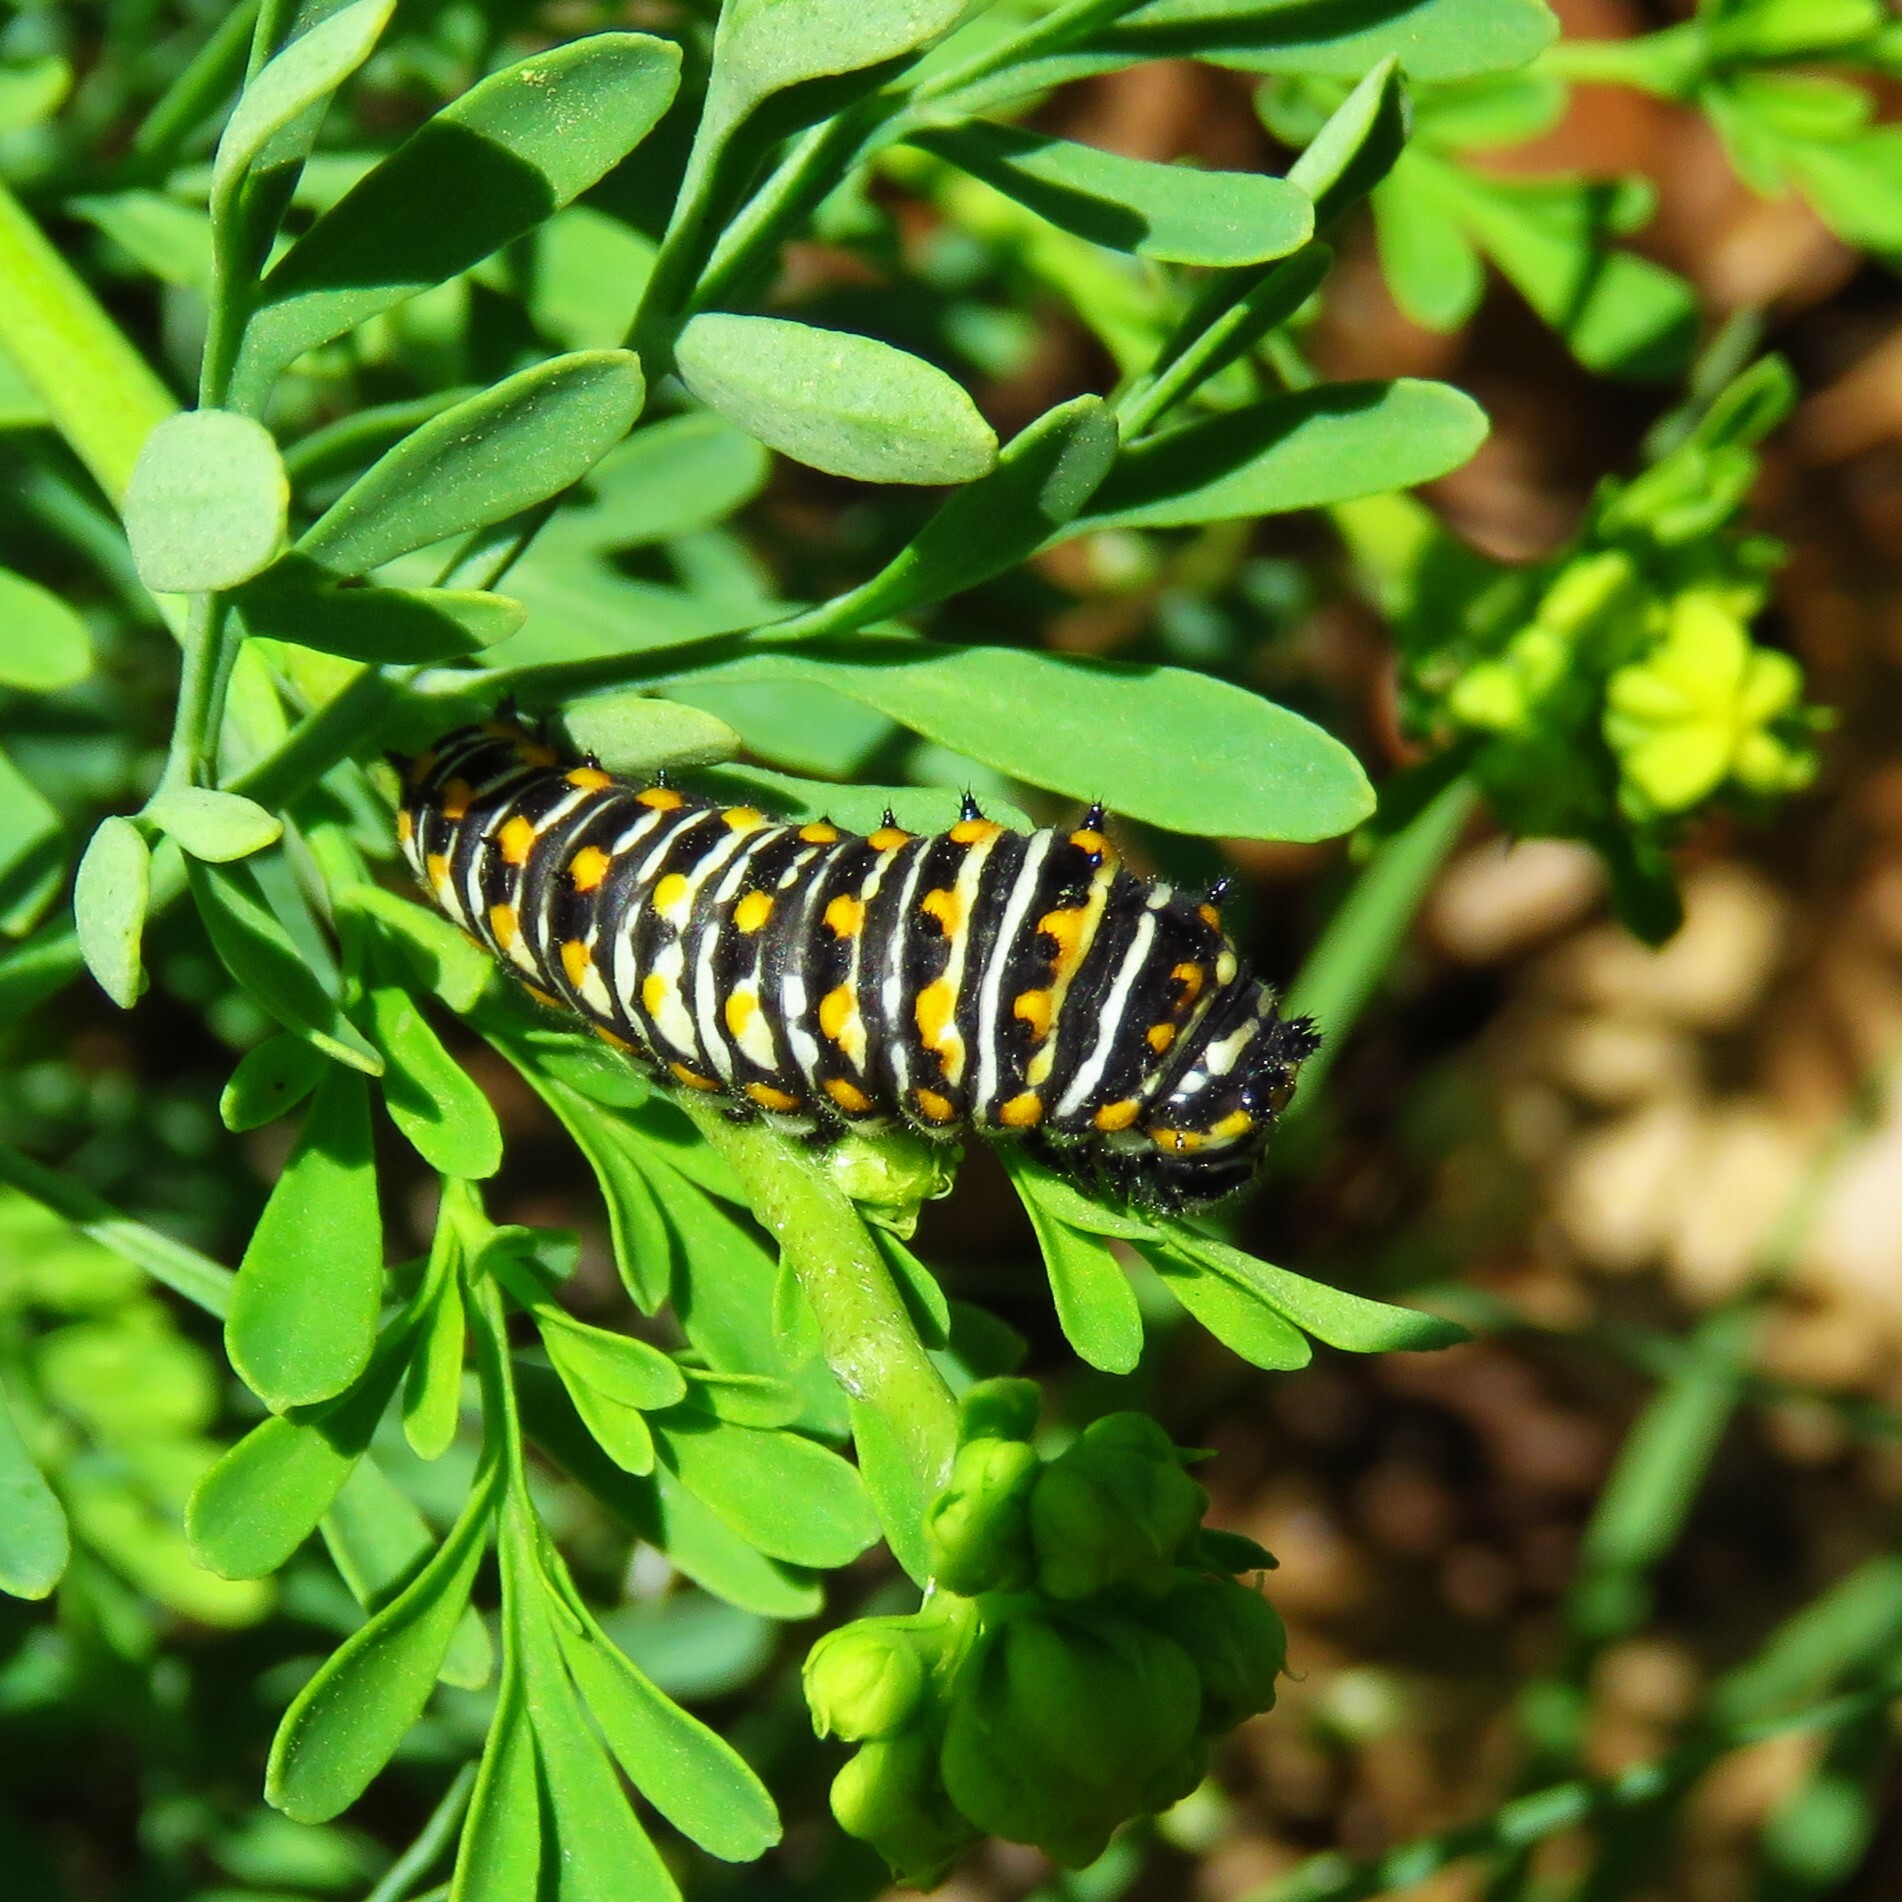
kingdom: Animalia
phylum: Arthropoda
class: Insecta
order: Lepidoptera
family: Papilionidae
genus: Papilio
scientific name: Papilio polyxenes
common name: Black swallowtail
